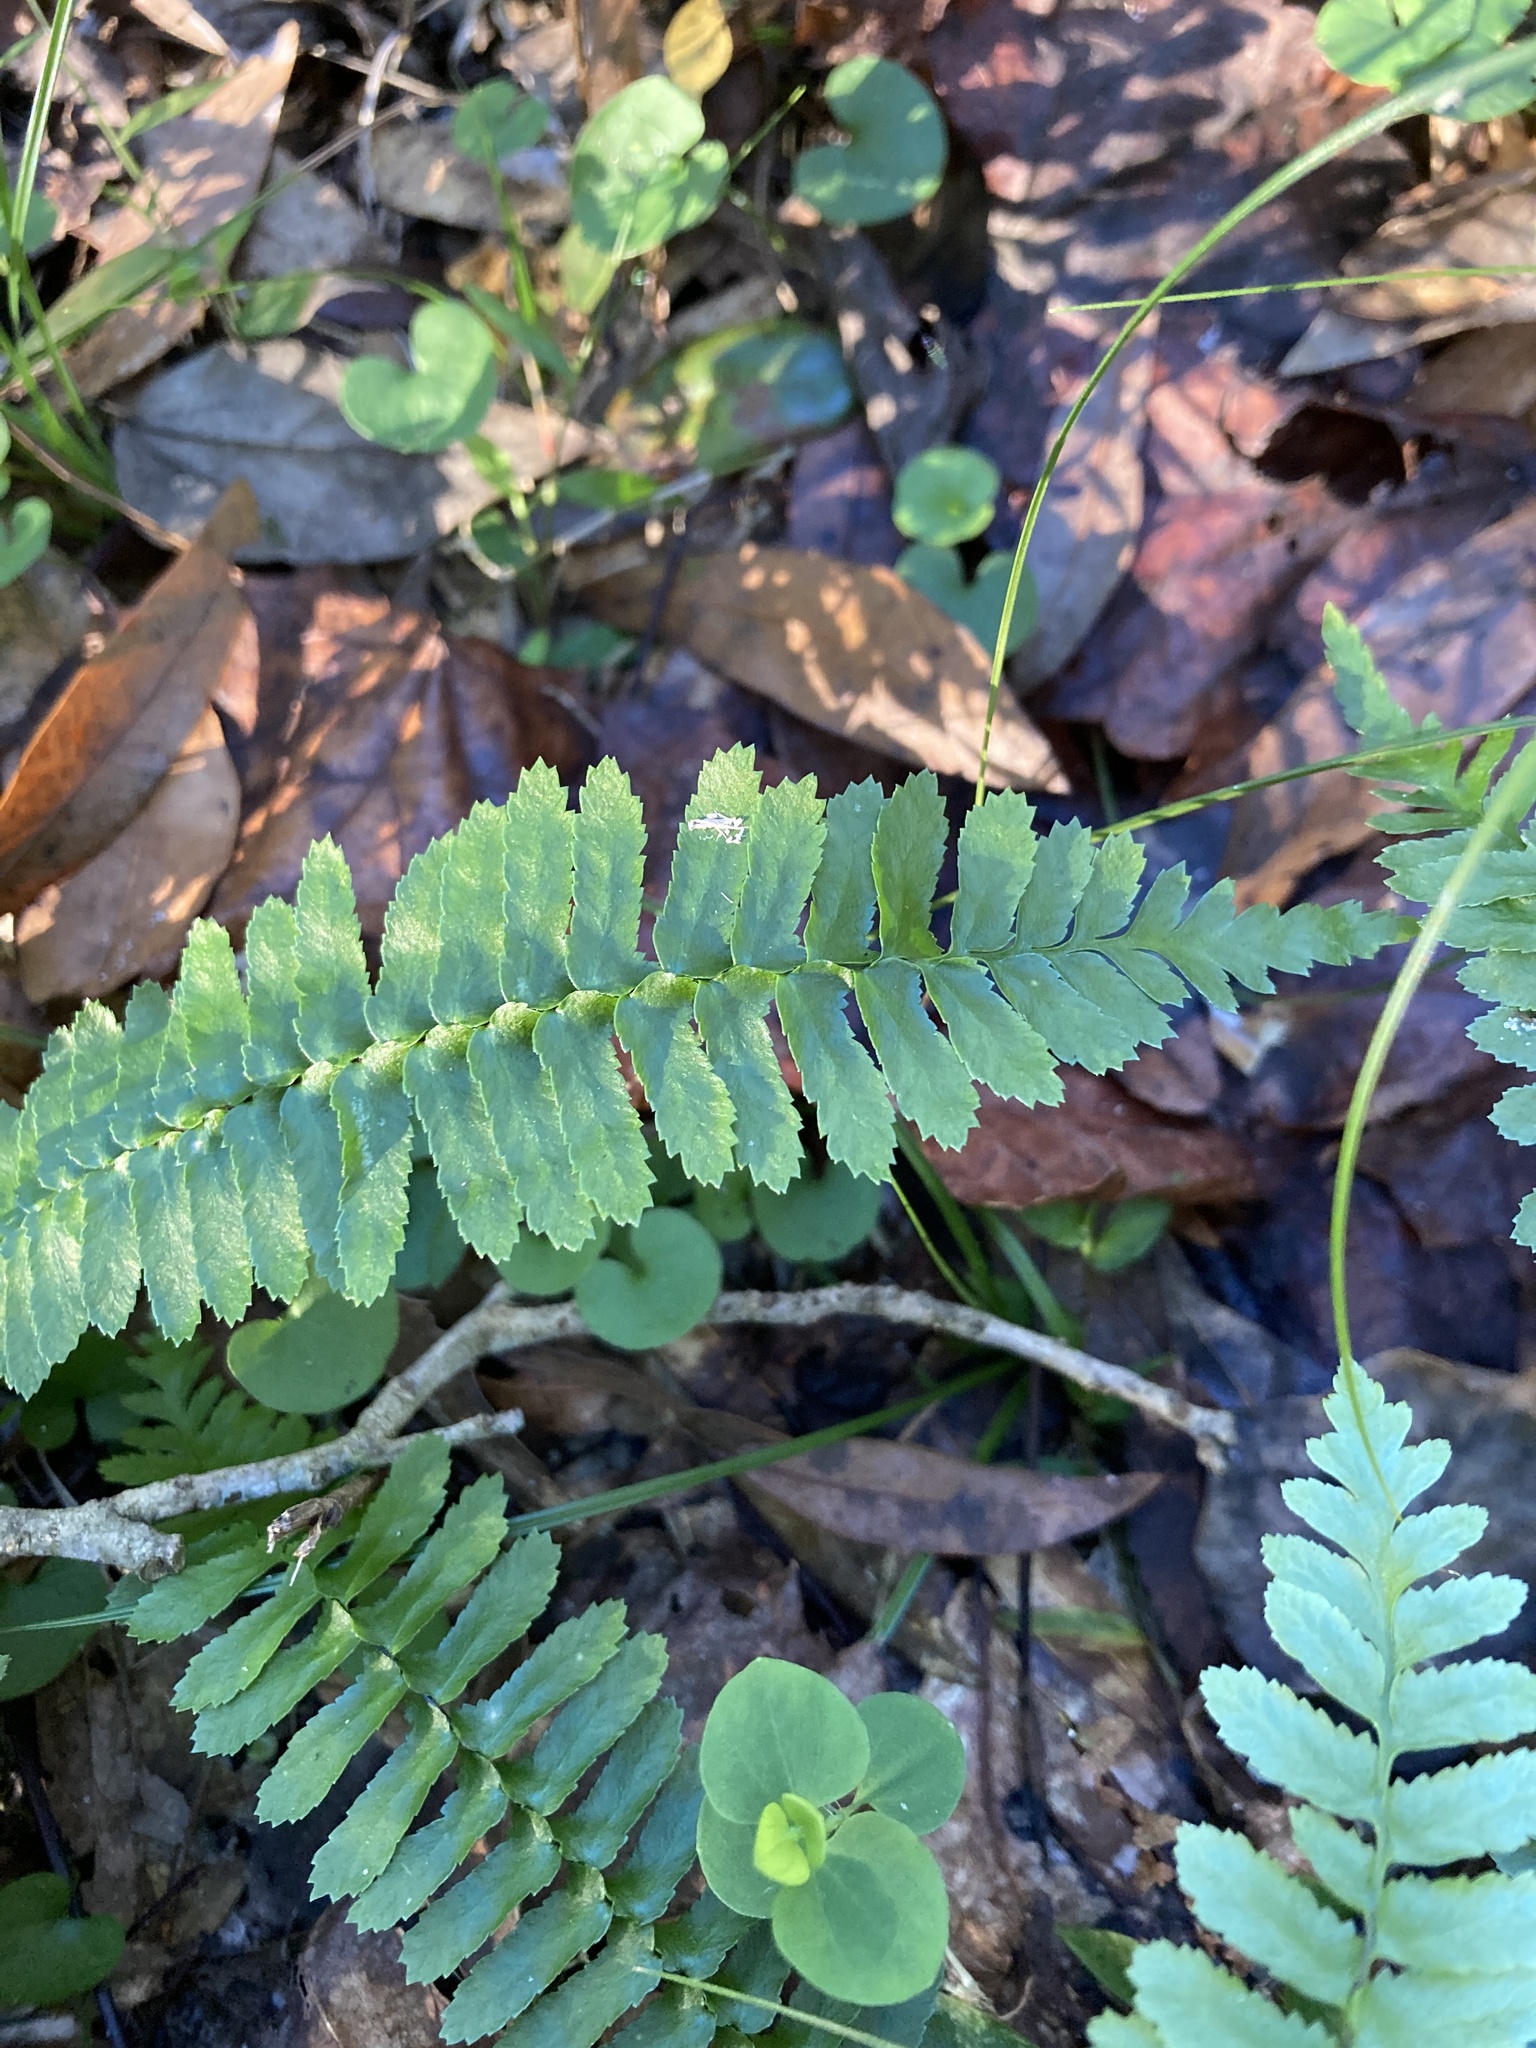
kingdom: Plantae
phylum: Tracheophyta
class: Polypodiopsida
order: Polypodiales
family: Aspleniaceae
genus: Asplenium
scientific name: Asplenium platyneuron
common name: Ebony spleenwort
